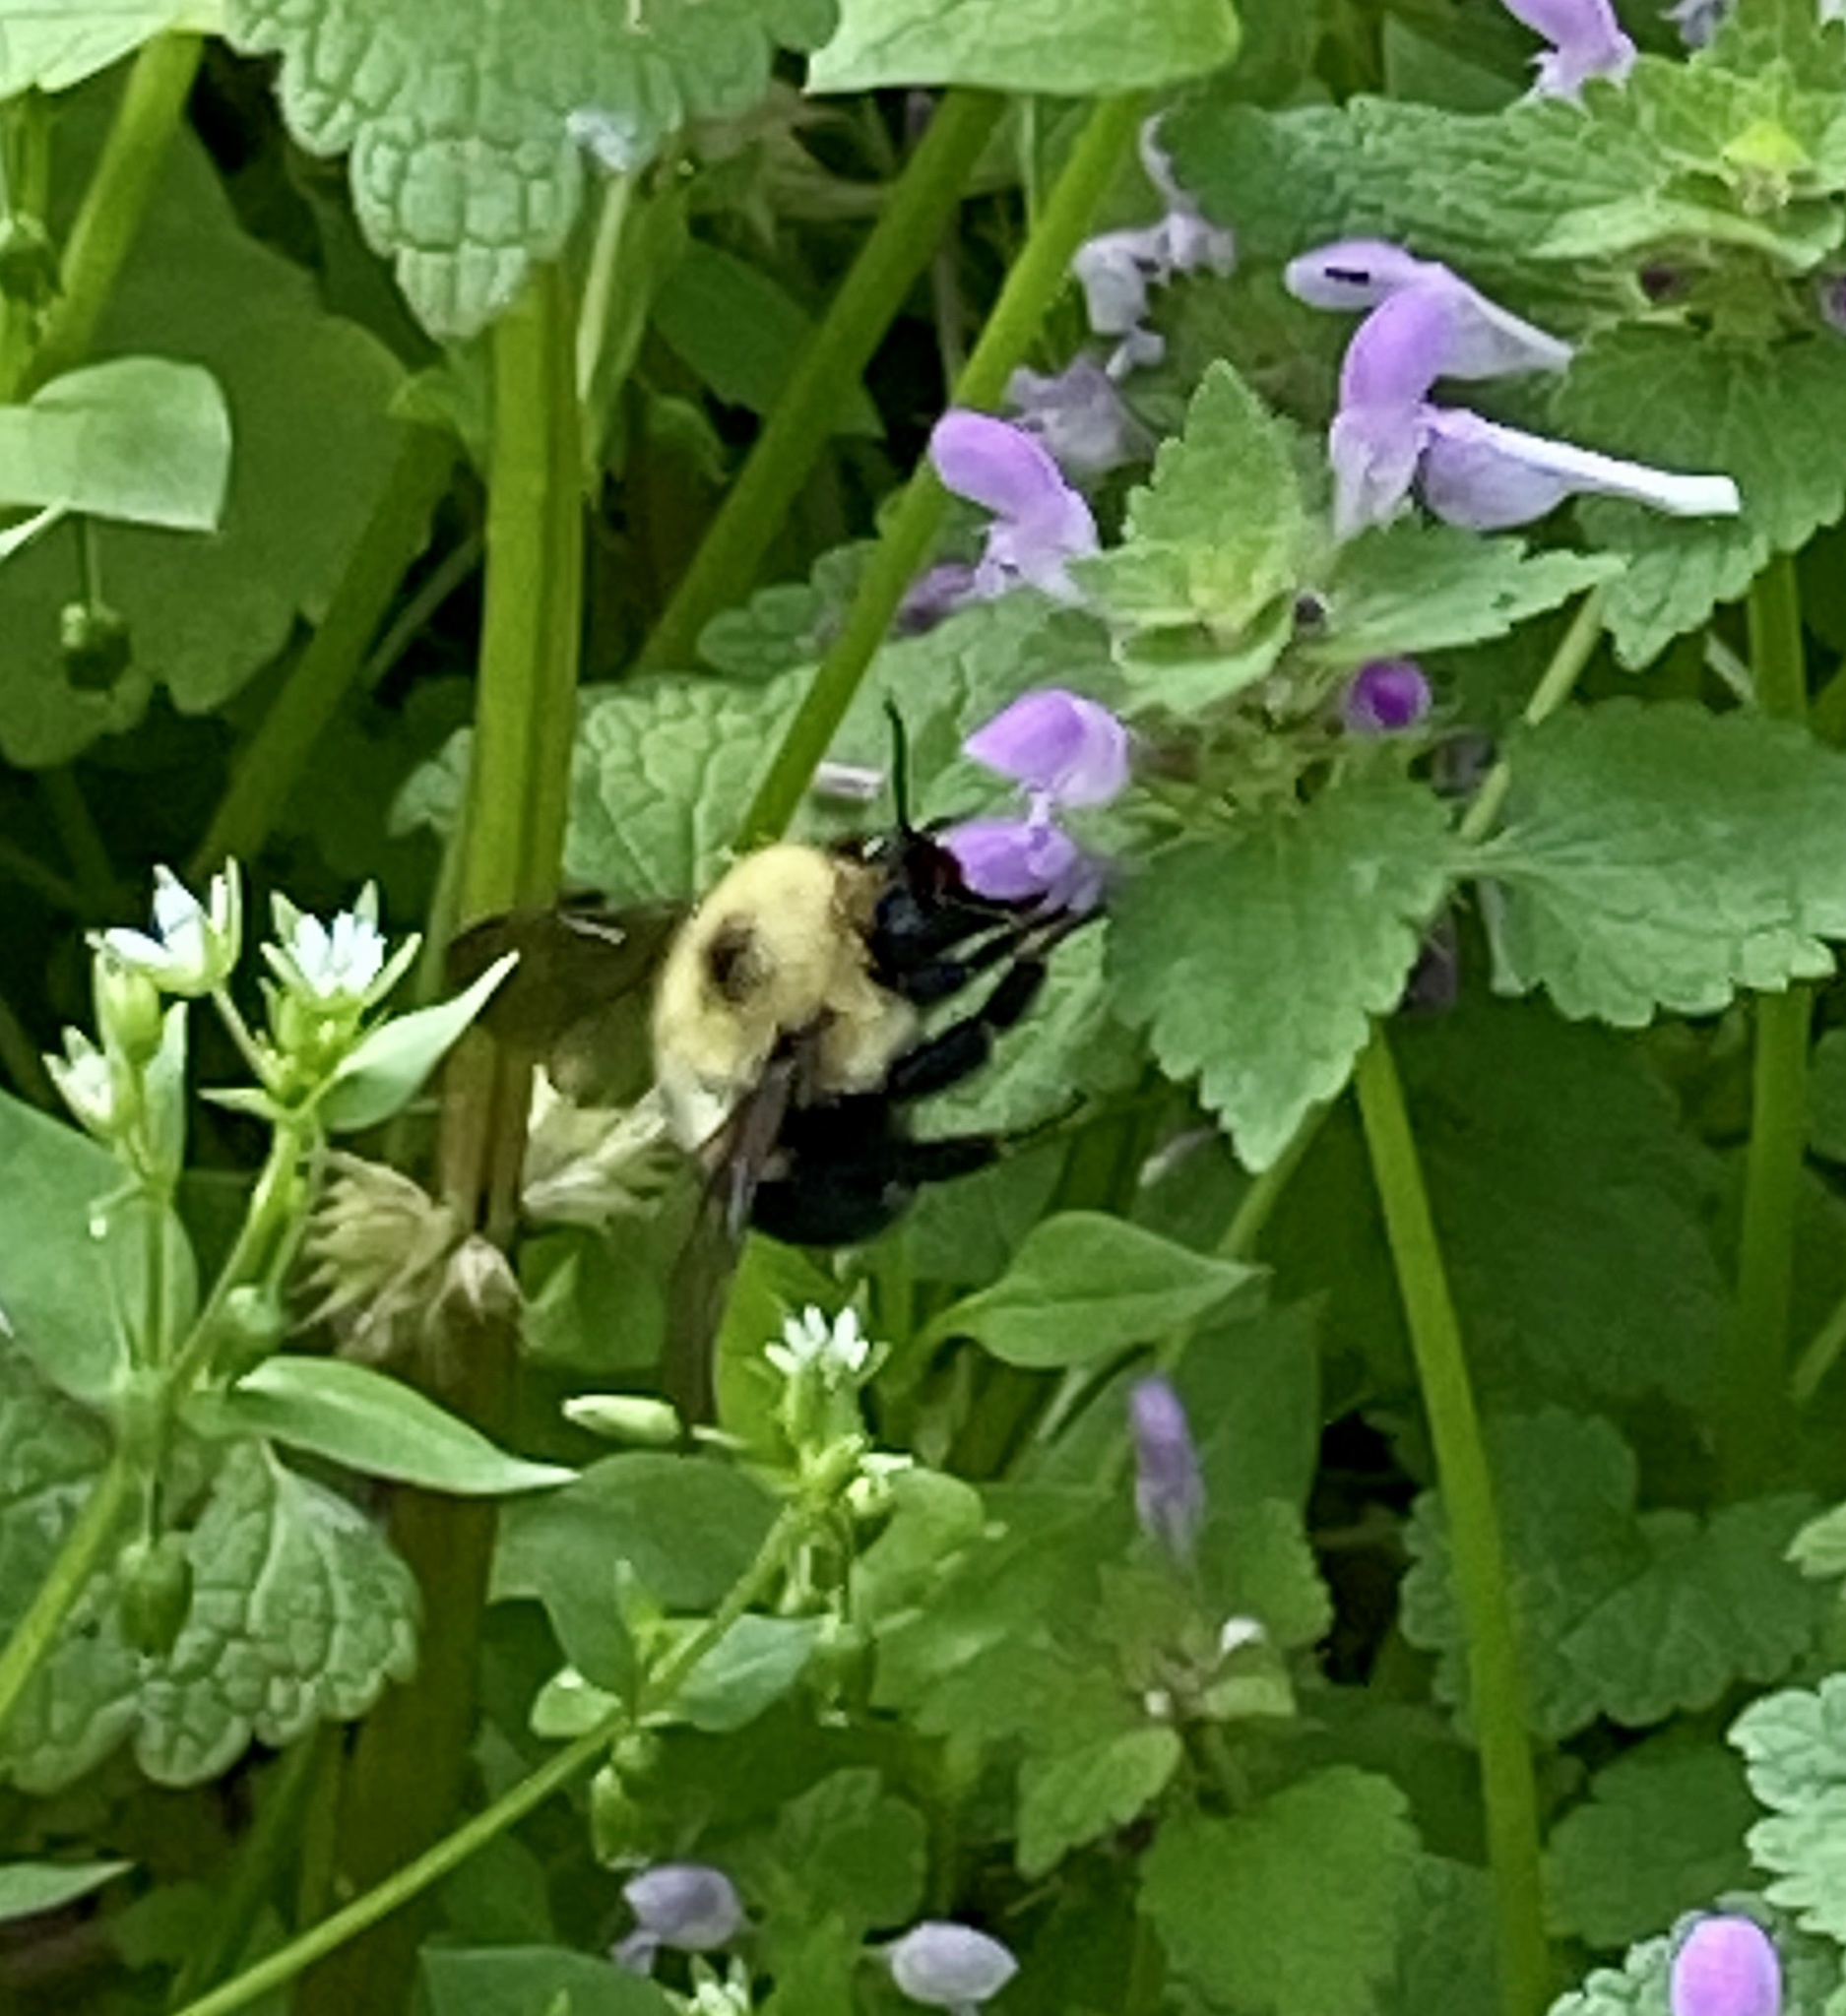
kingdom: Animalia
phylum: Arthropoda
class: Insecta
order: Hymenoptera
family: Apidae
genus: Bombus
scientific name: Bombus bimaculatus
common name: Two-spotted bumble bee
